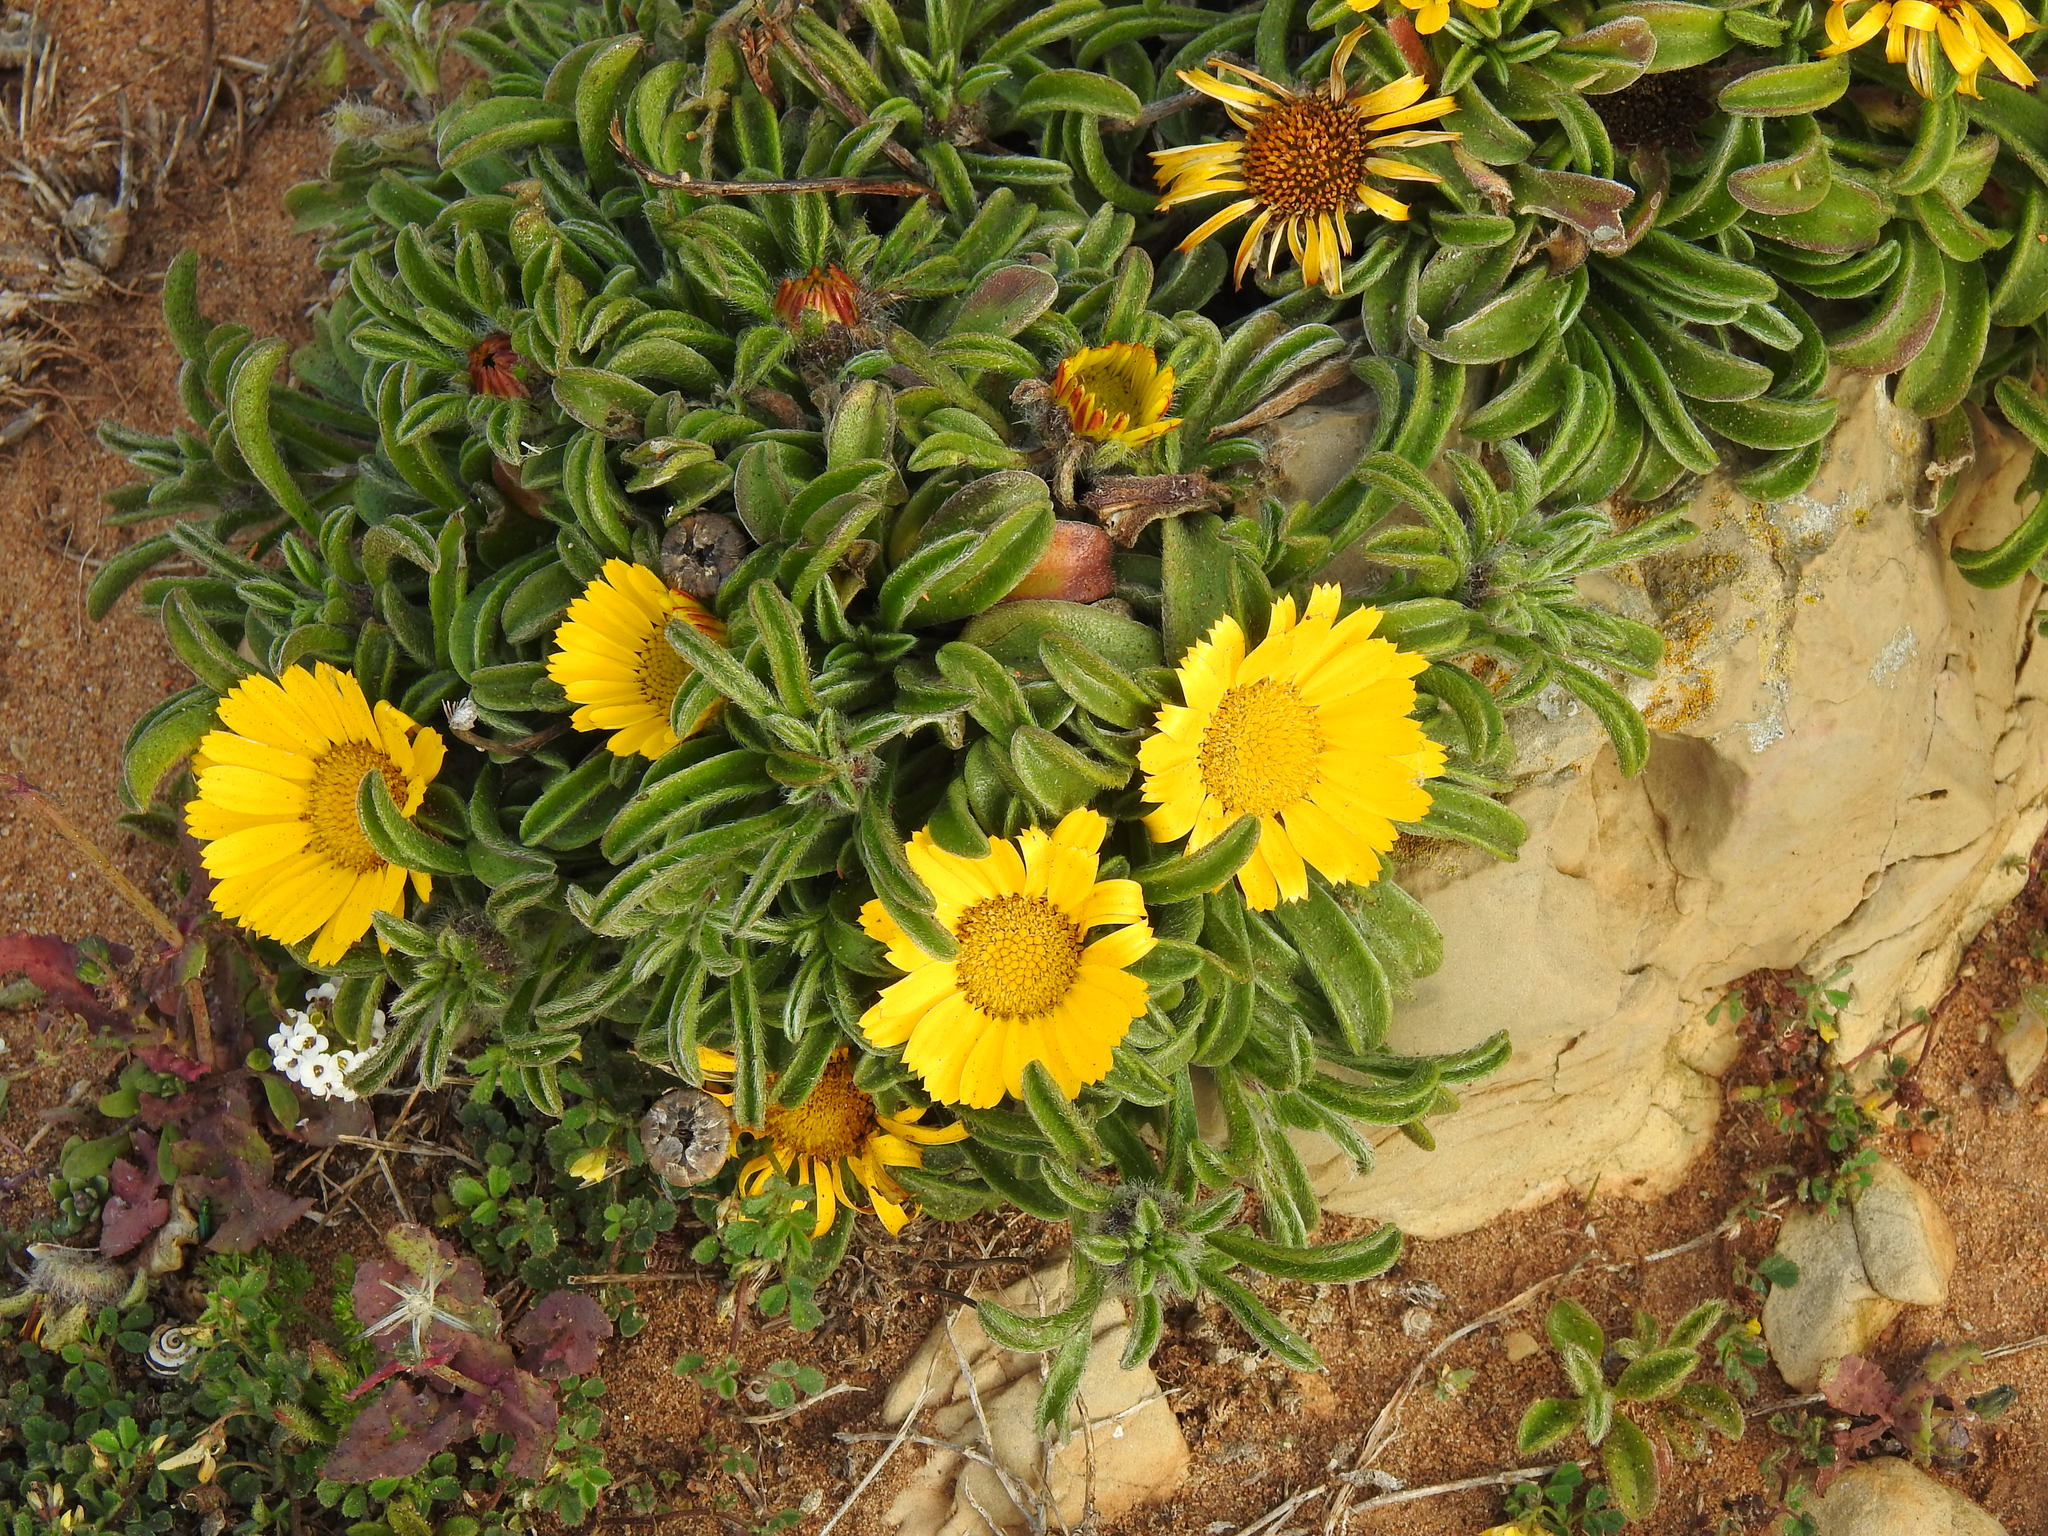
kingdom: Plantae
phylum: Tracheophyta
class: Magnoliopsida
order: Asterales
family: Asteraceae
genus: Pallenis
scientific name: Pallenis maritima
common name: Golden coin daisy
